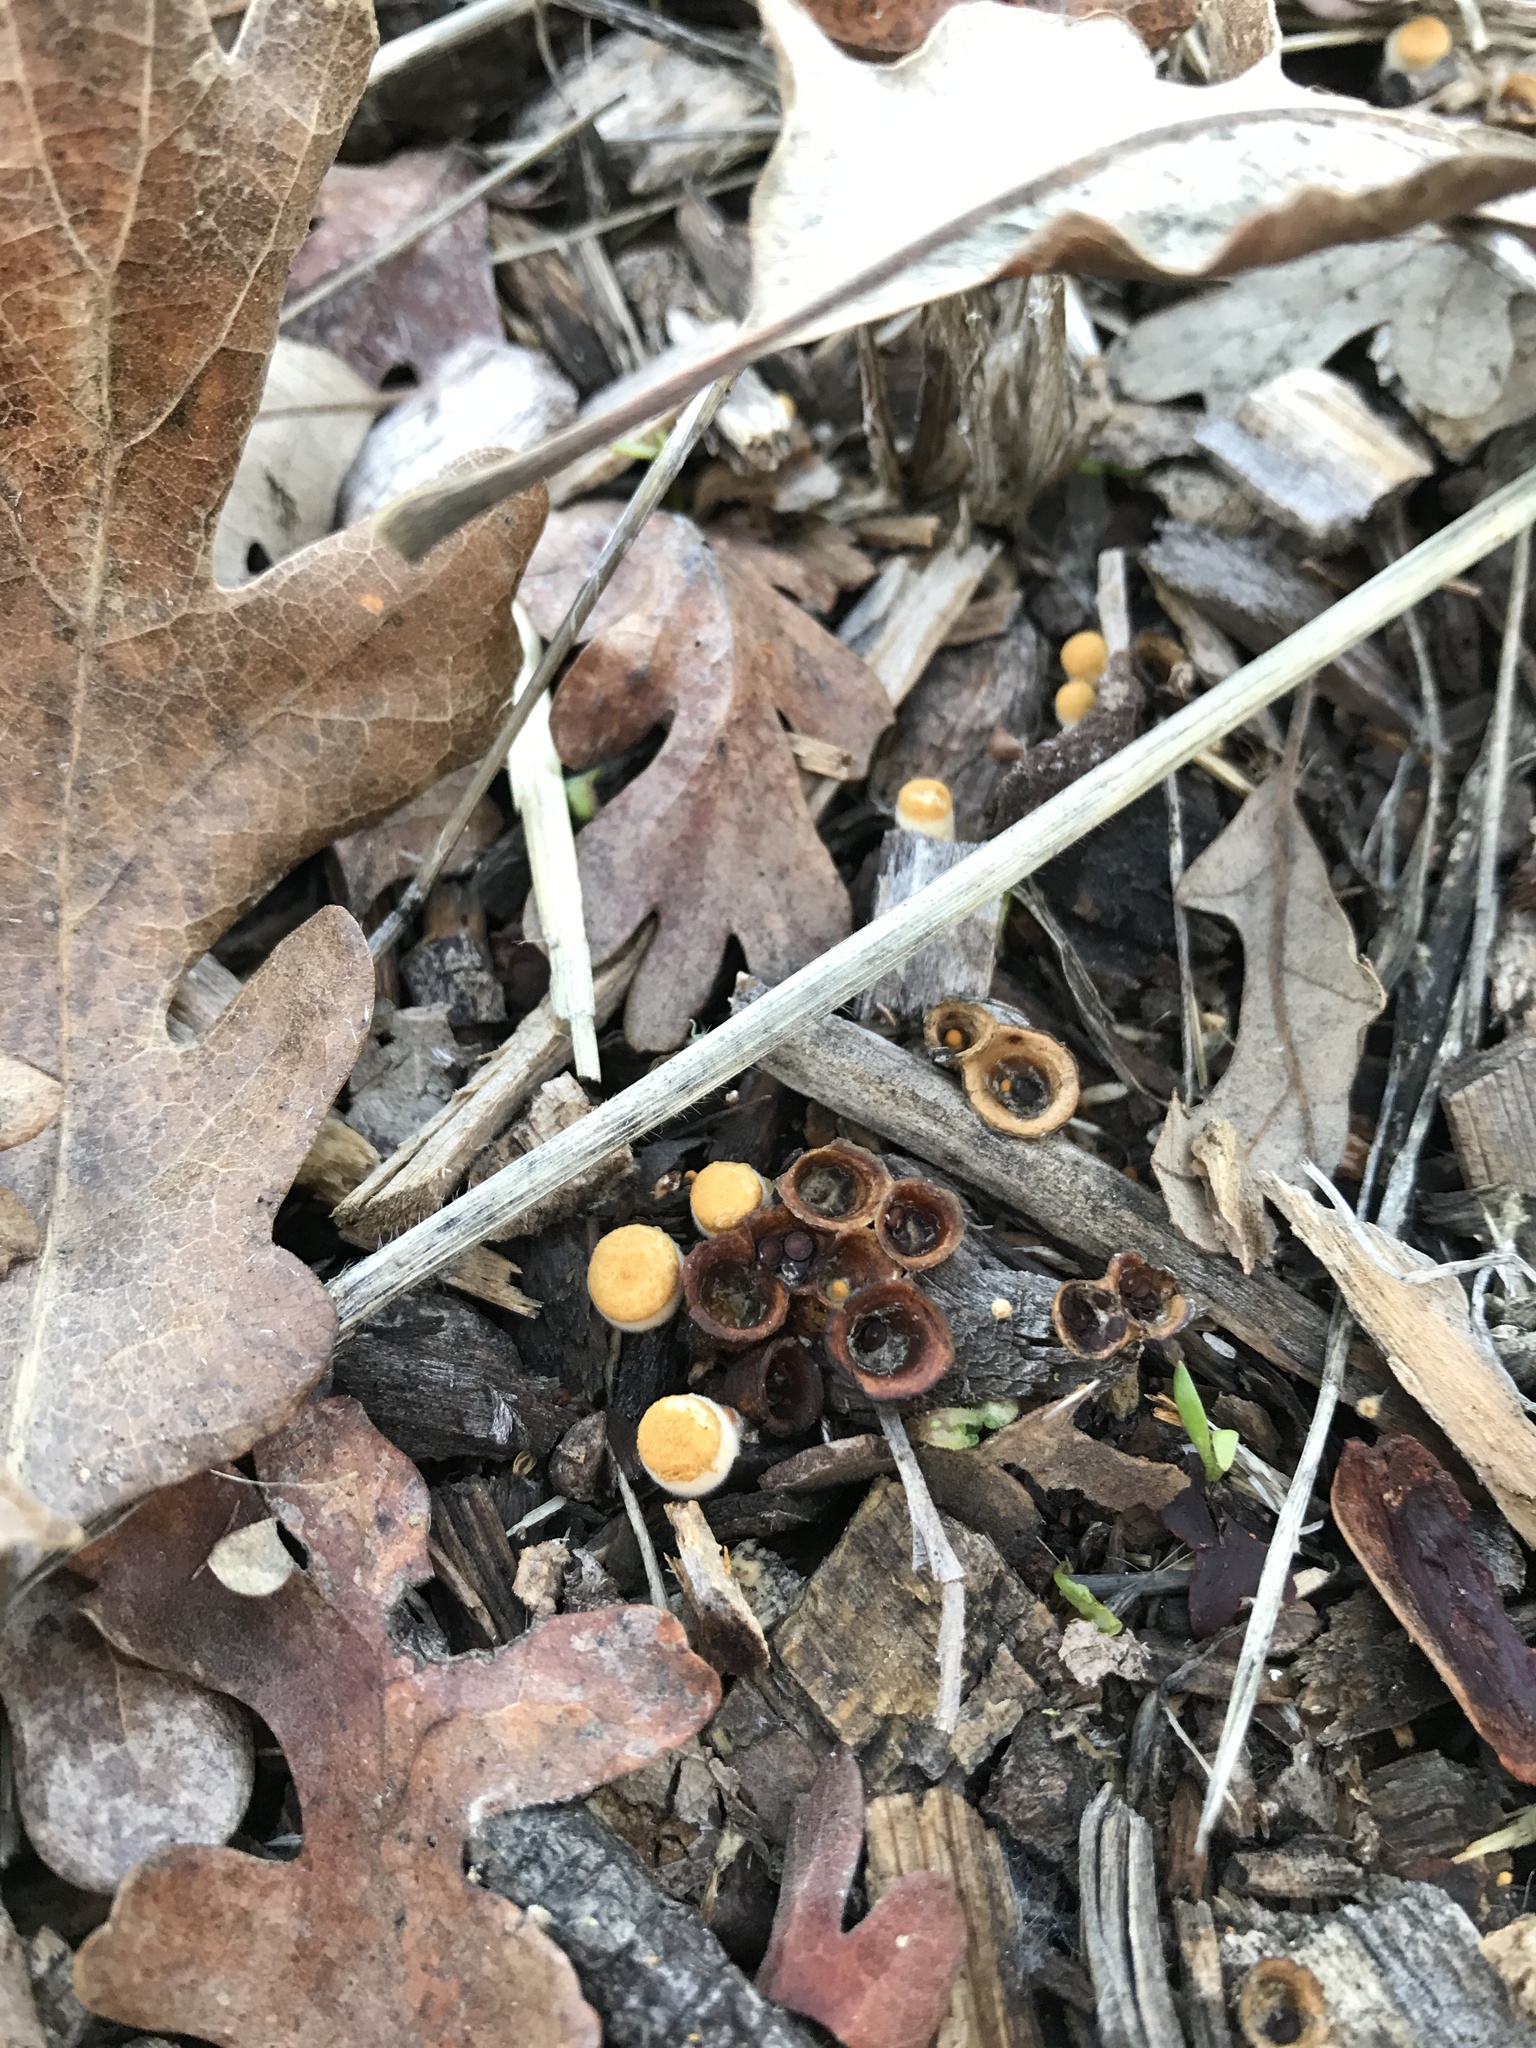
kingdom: Fungi
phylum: Basidiomycota
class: Agaricomycetes
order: Agaricales
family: Nidulariaceae
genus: Crucibulum
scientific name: Crucibulum laeve
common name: Common bird's nest
